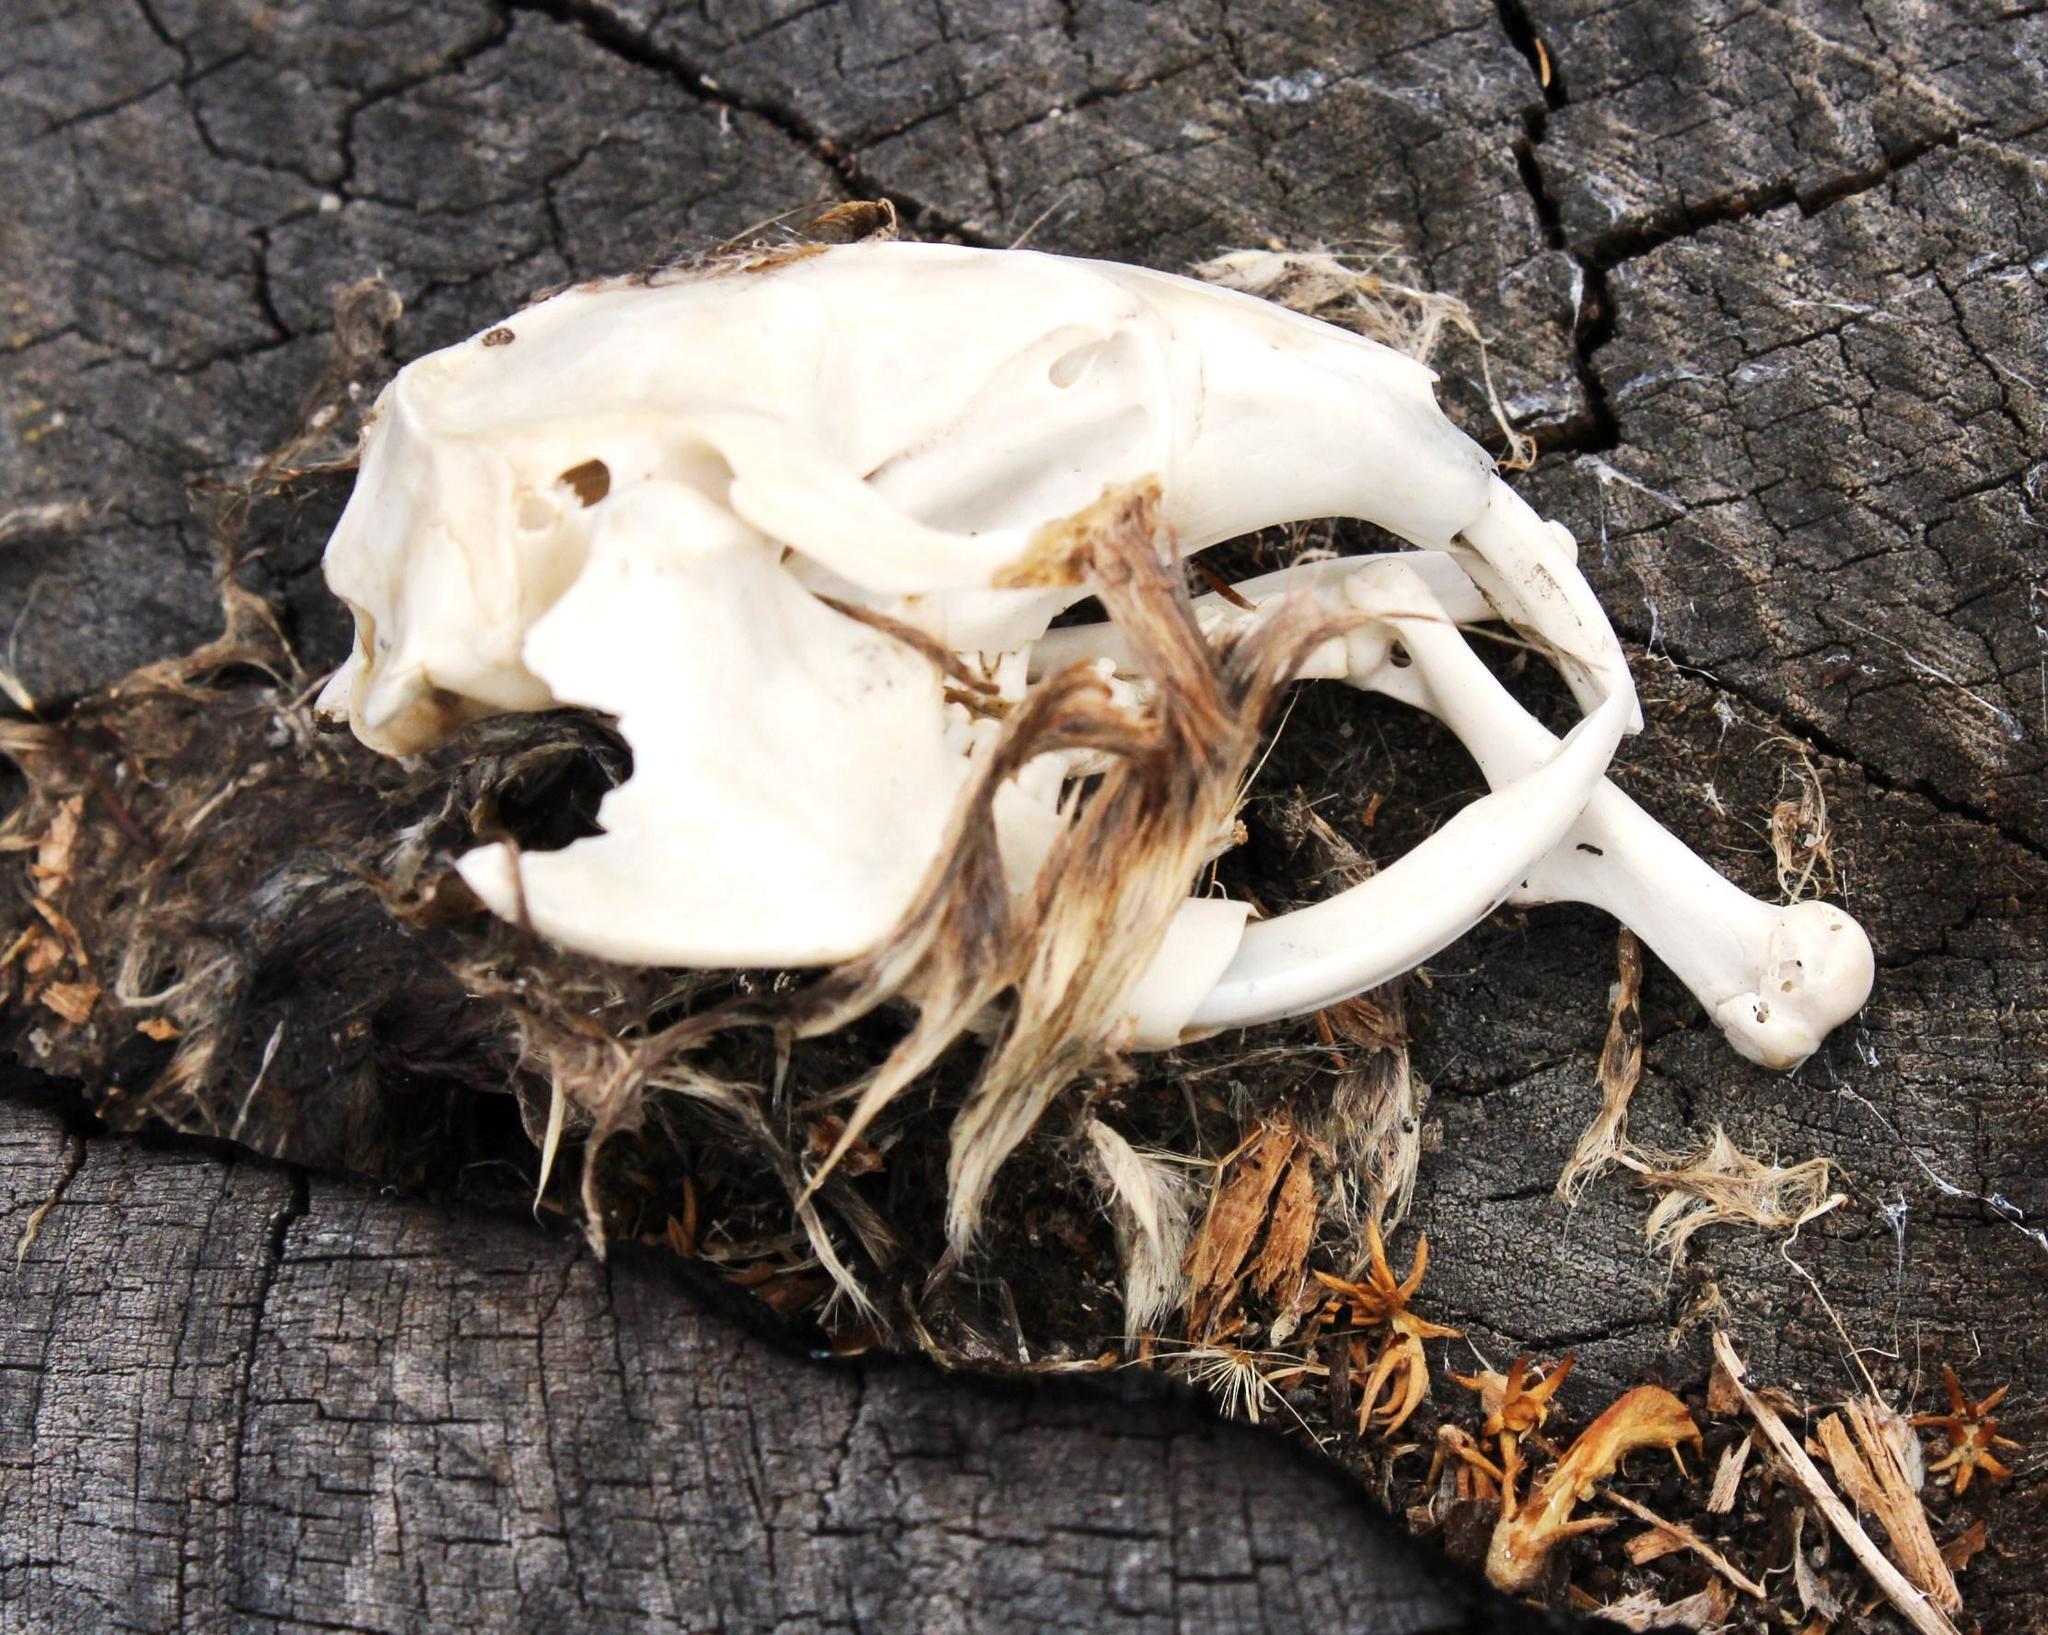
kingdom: Animalia
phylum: Chordata
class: Mammalia
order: Rodentia
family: Bathyergidae
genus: Bathyergus
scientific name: Bathyergus suillus
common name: Cape dune mole rat
